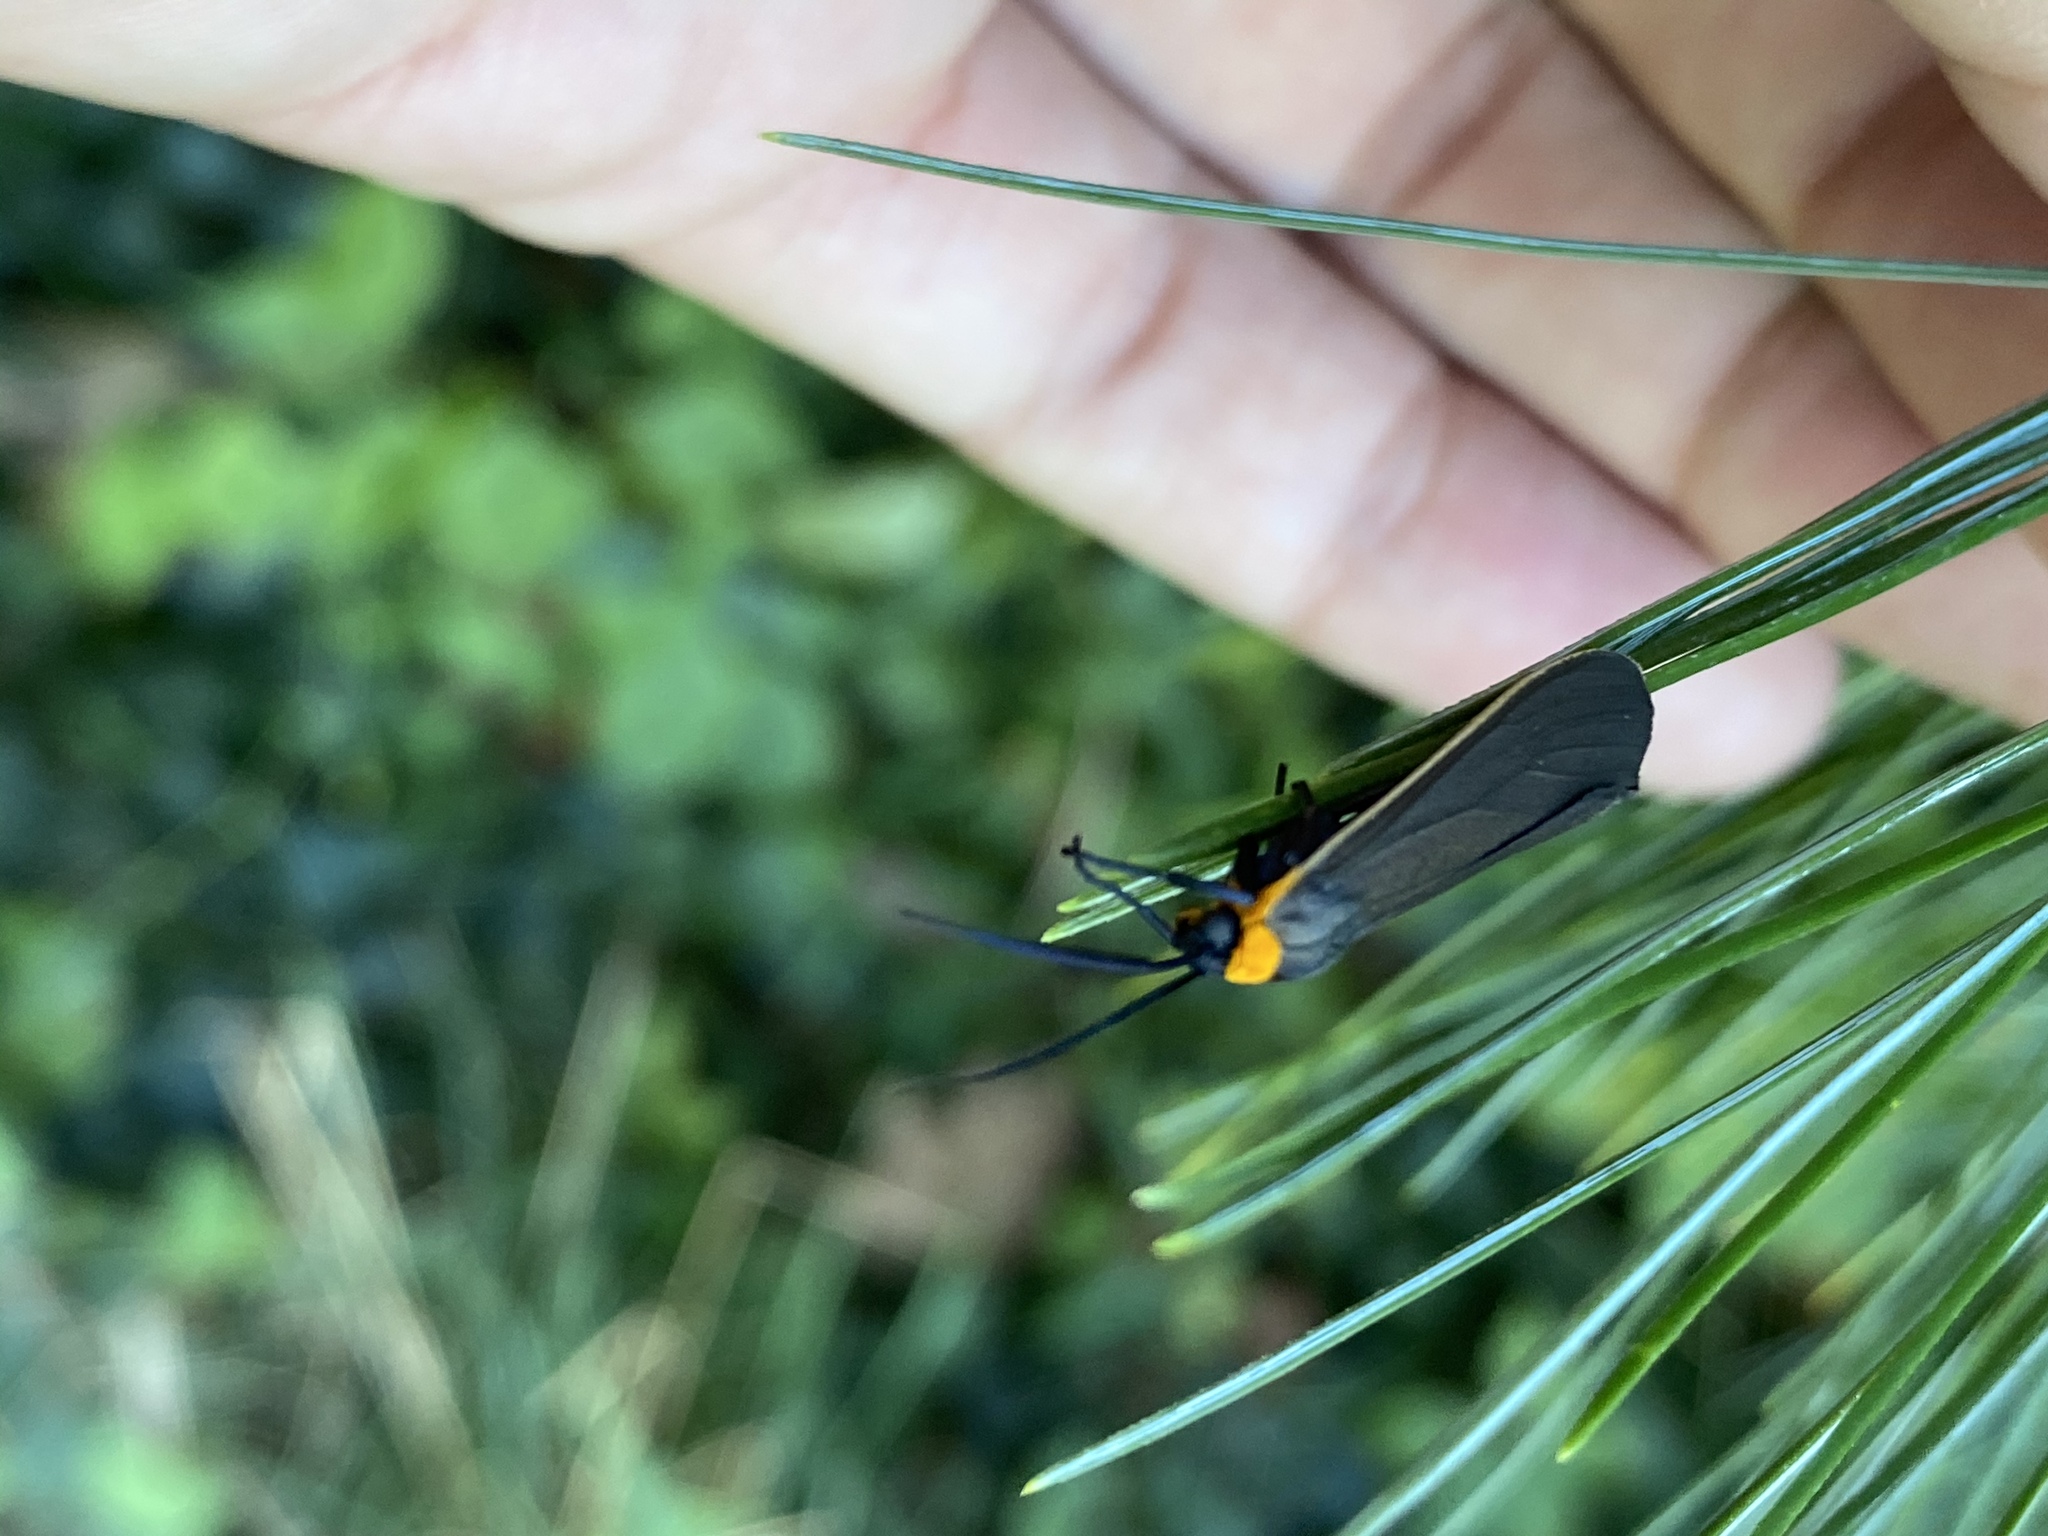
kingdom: Animalia
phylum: Arthropoda
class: Insecta
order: Lepidoptera
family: Erebidae
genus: Cisseps
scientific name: Cisseps fulvicollis
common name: Yellow-collared scape moth
